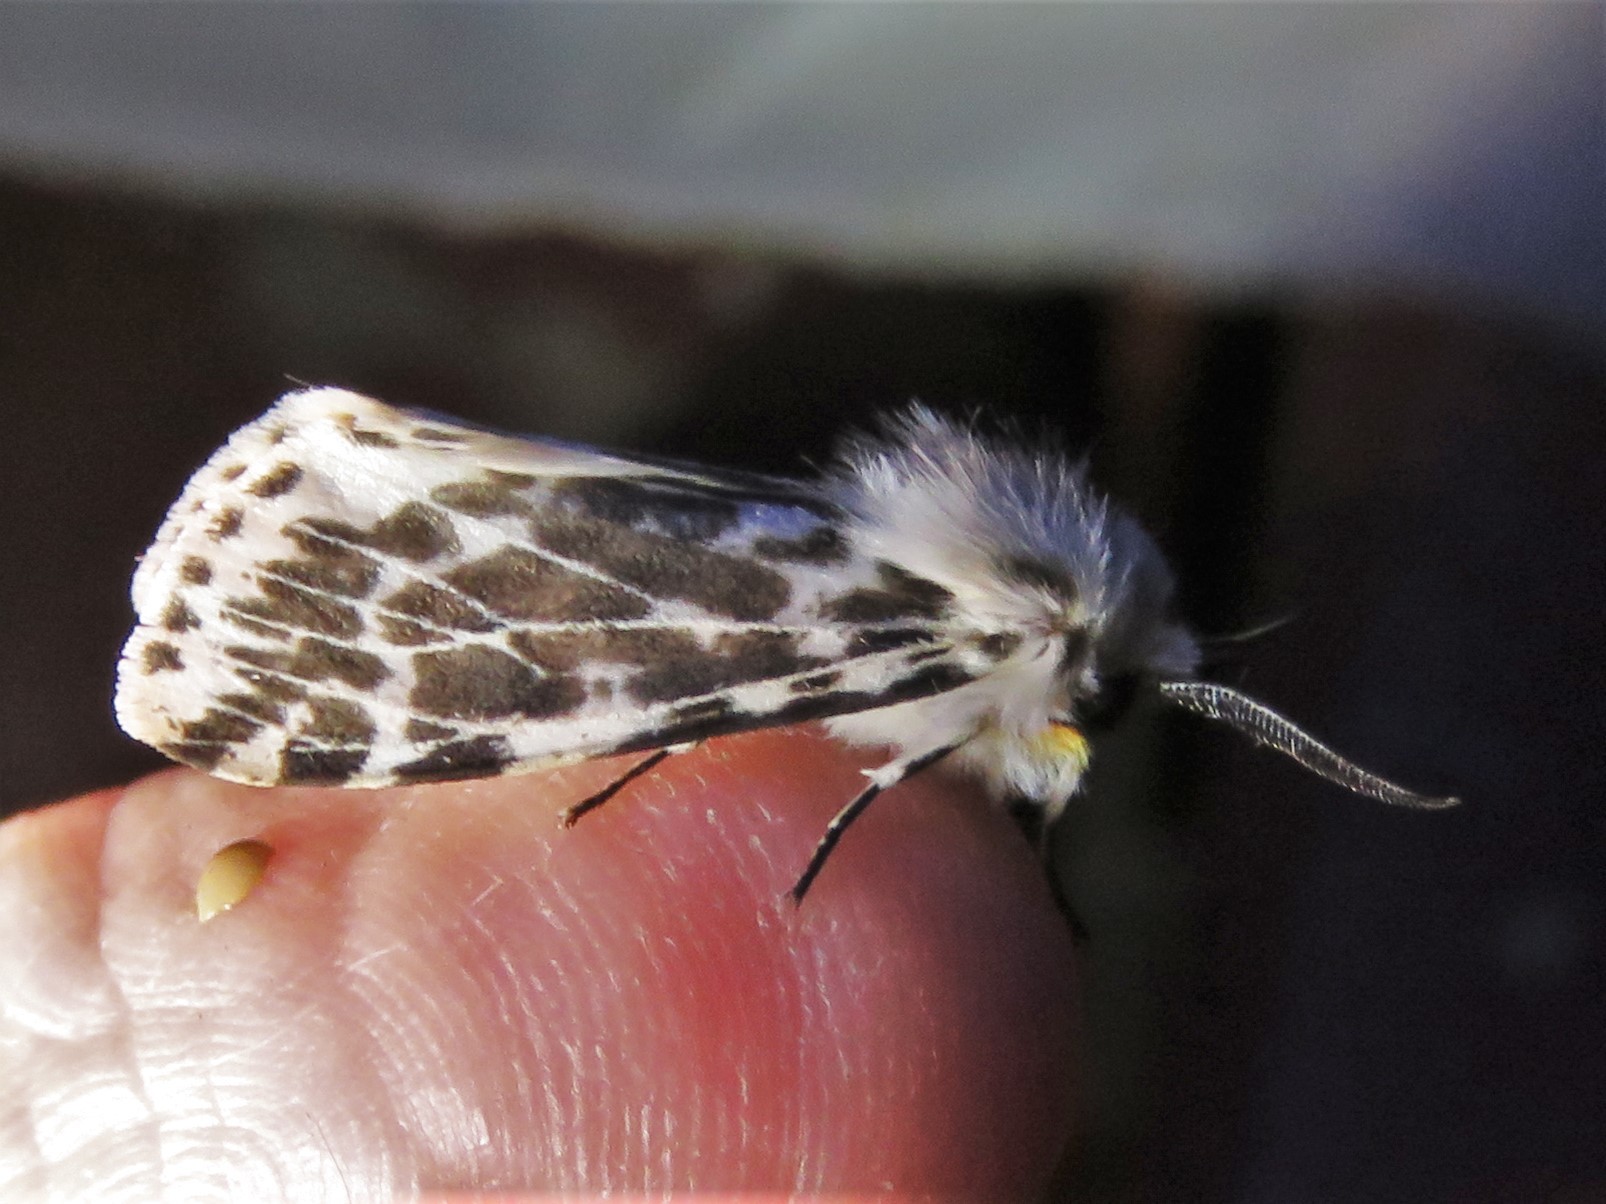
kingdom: Animalia
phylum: Arthropoda
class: Insecta
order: Lepidoptera
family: Erebidae
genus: Hyphantria
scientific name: Hyphantria cunea
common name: American white moth
